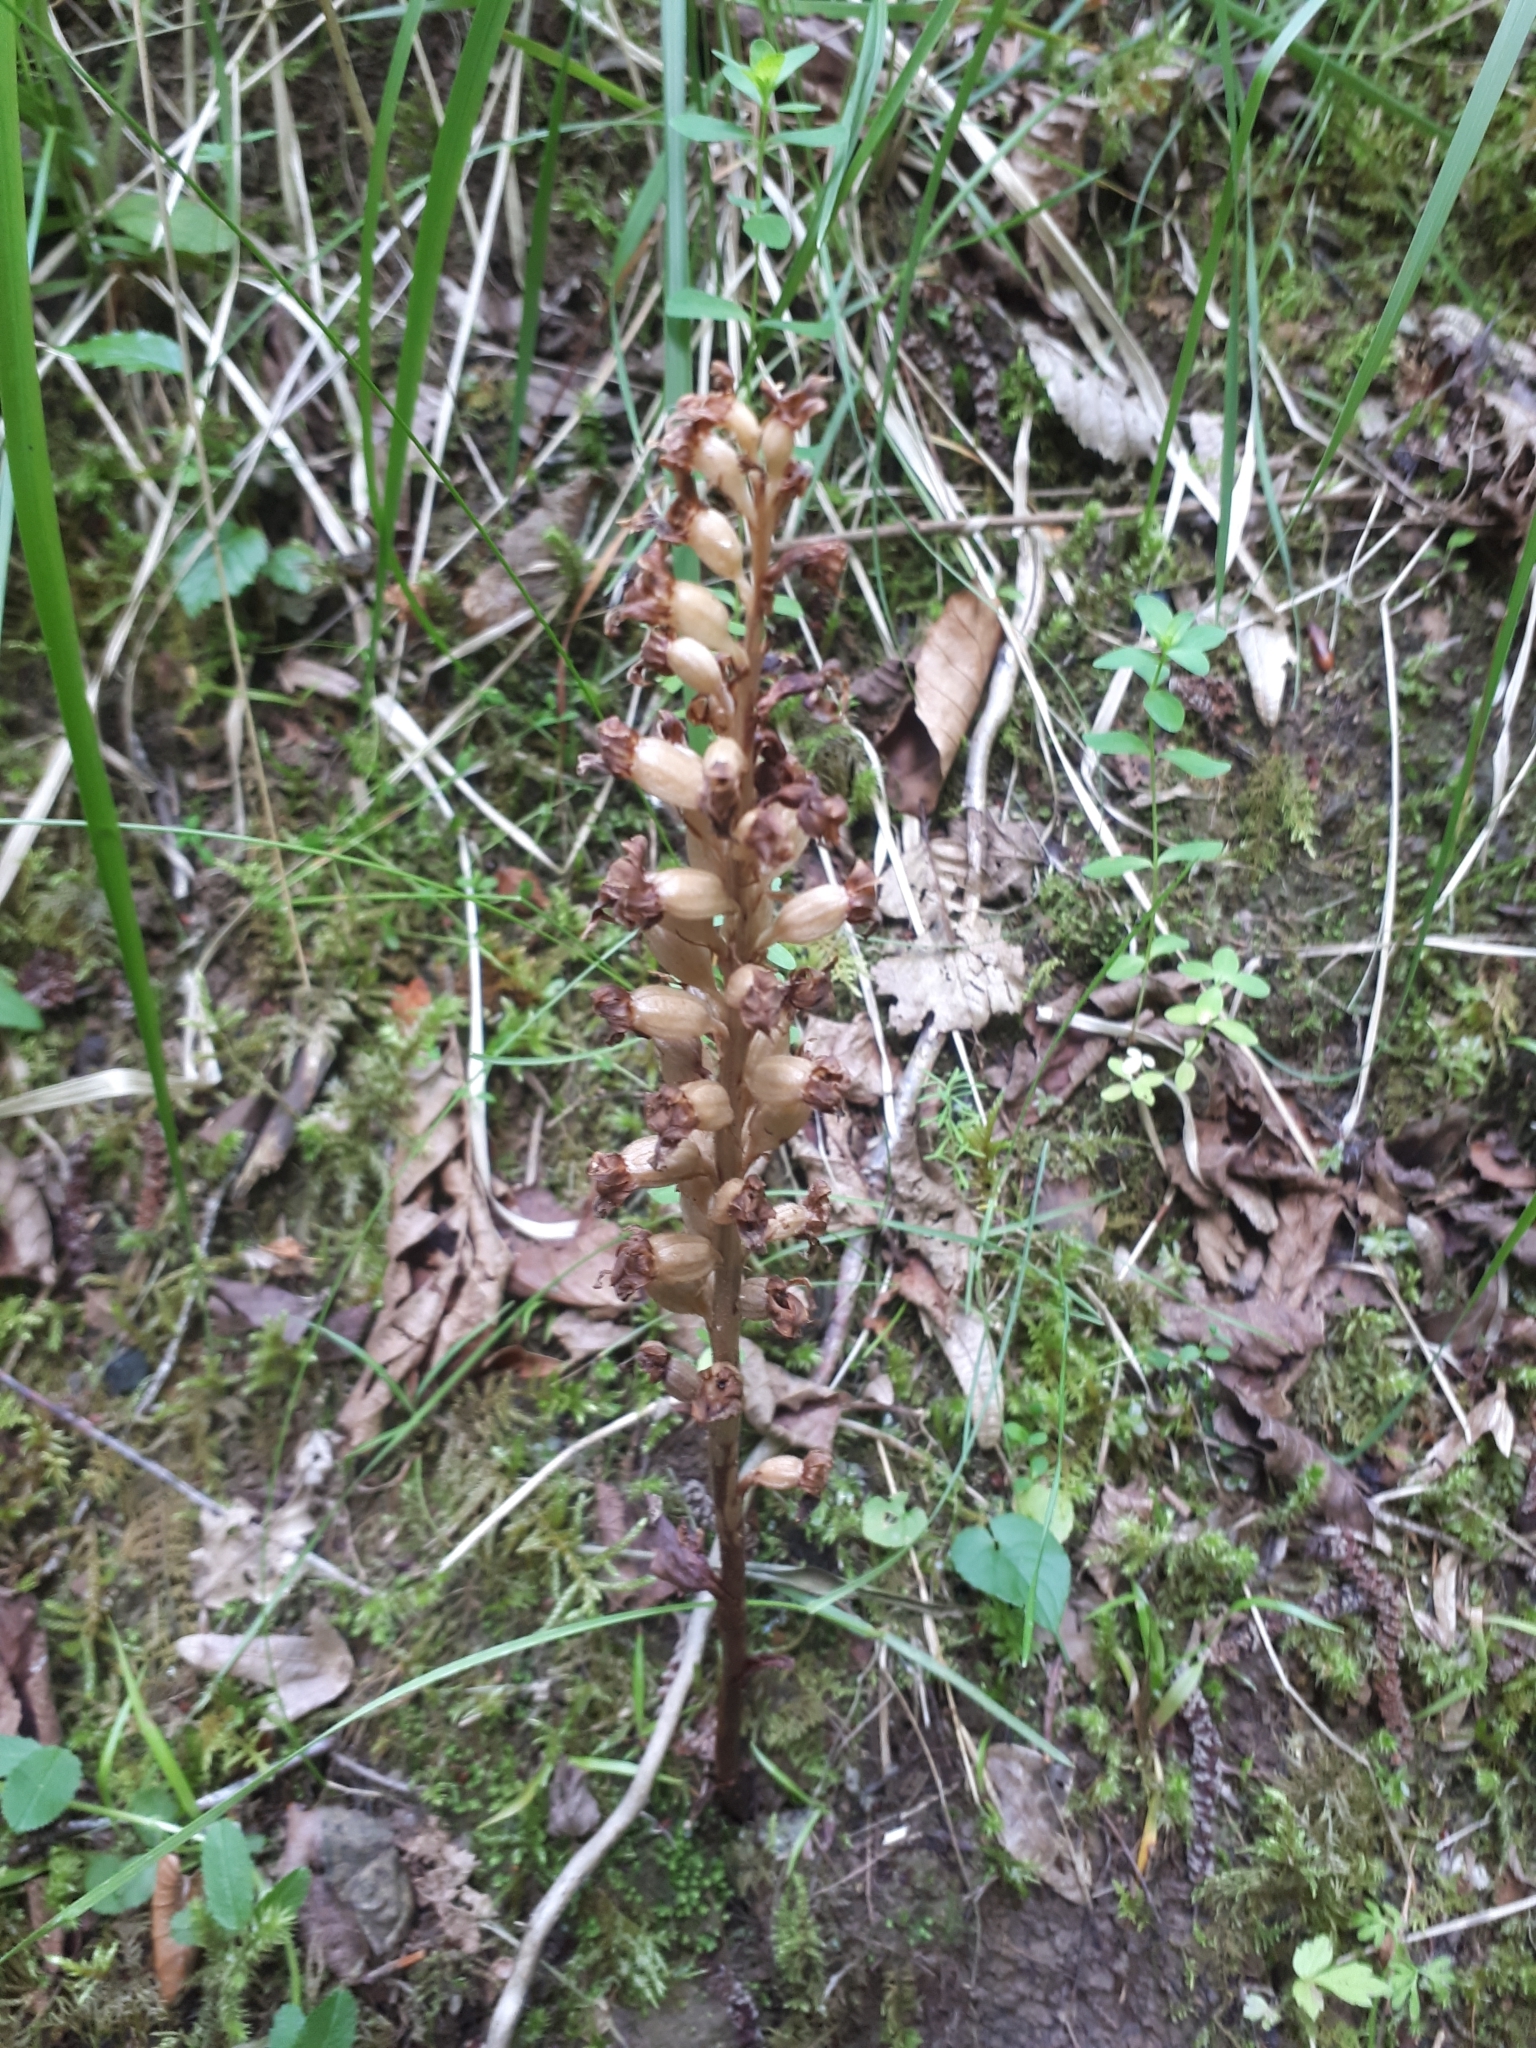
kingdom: Plantae
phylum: Tracheophyta
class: Liliopsida
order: Asparagales
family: Orchidaceae
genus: Neottia
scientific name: Neottia nidus-avis
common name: Bird's-nest orchid
